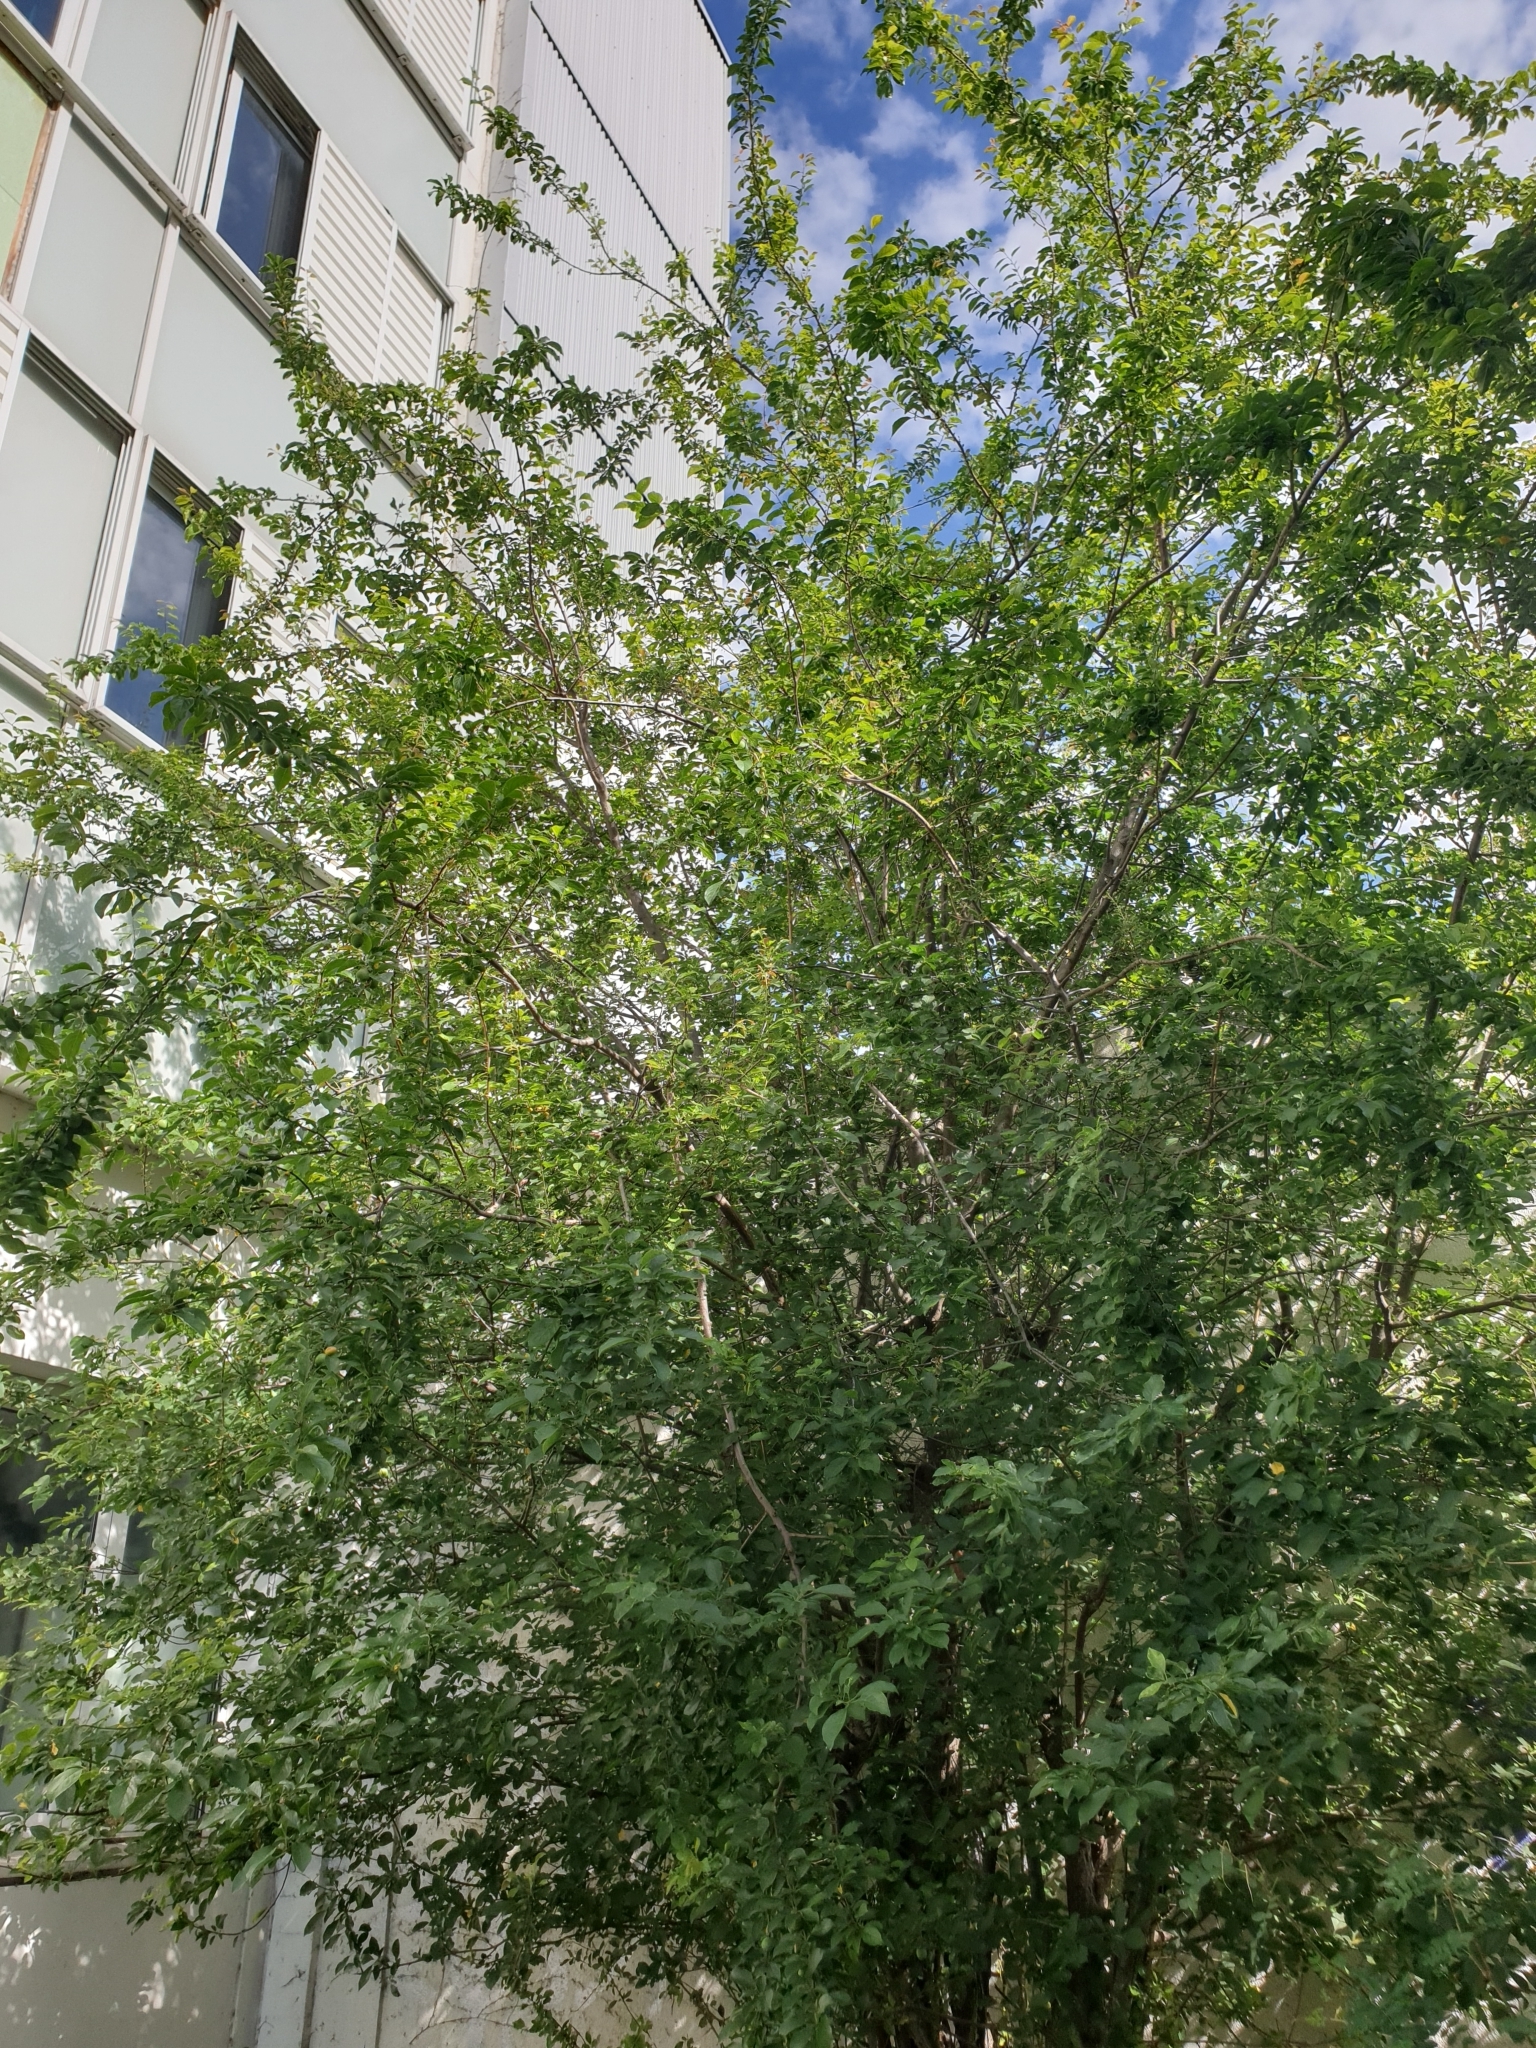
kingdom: Plantae
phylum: Tracheophyta
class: Magnoliopsida
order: Rosales
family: Rosaceae
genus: Prunus
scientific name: Prunus cerasifera
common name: Cherry plum
